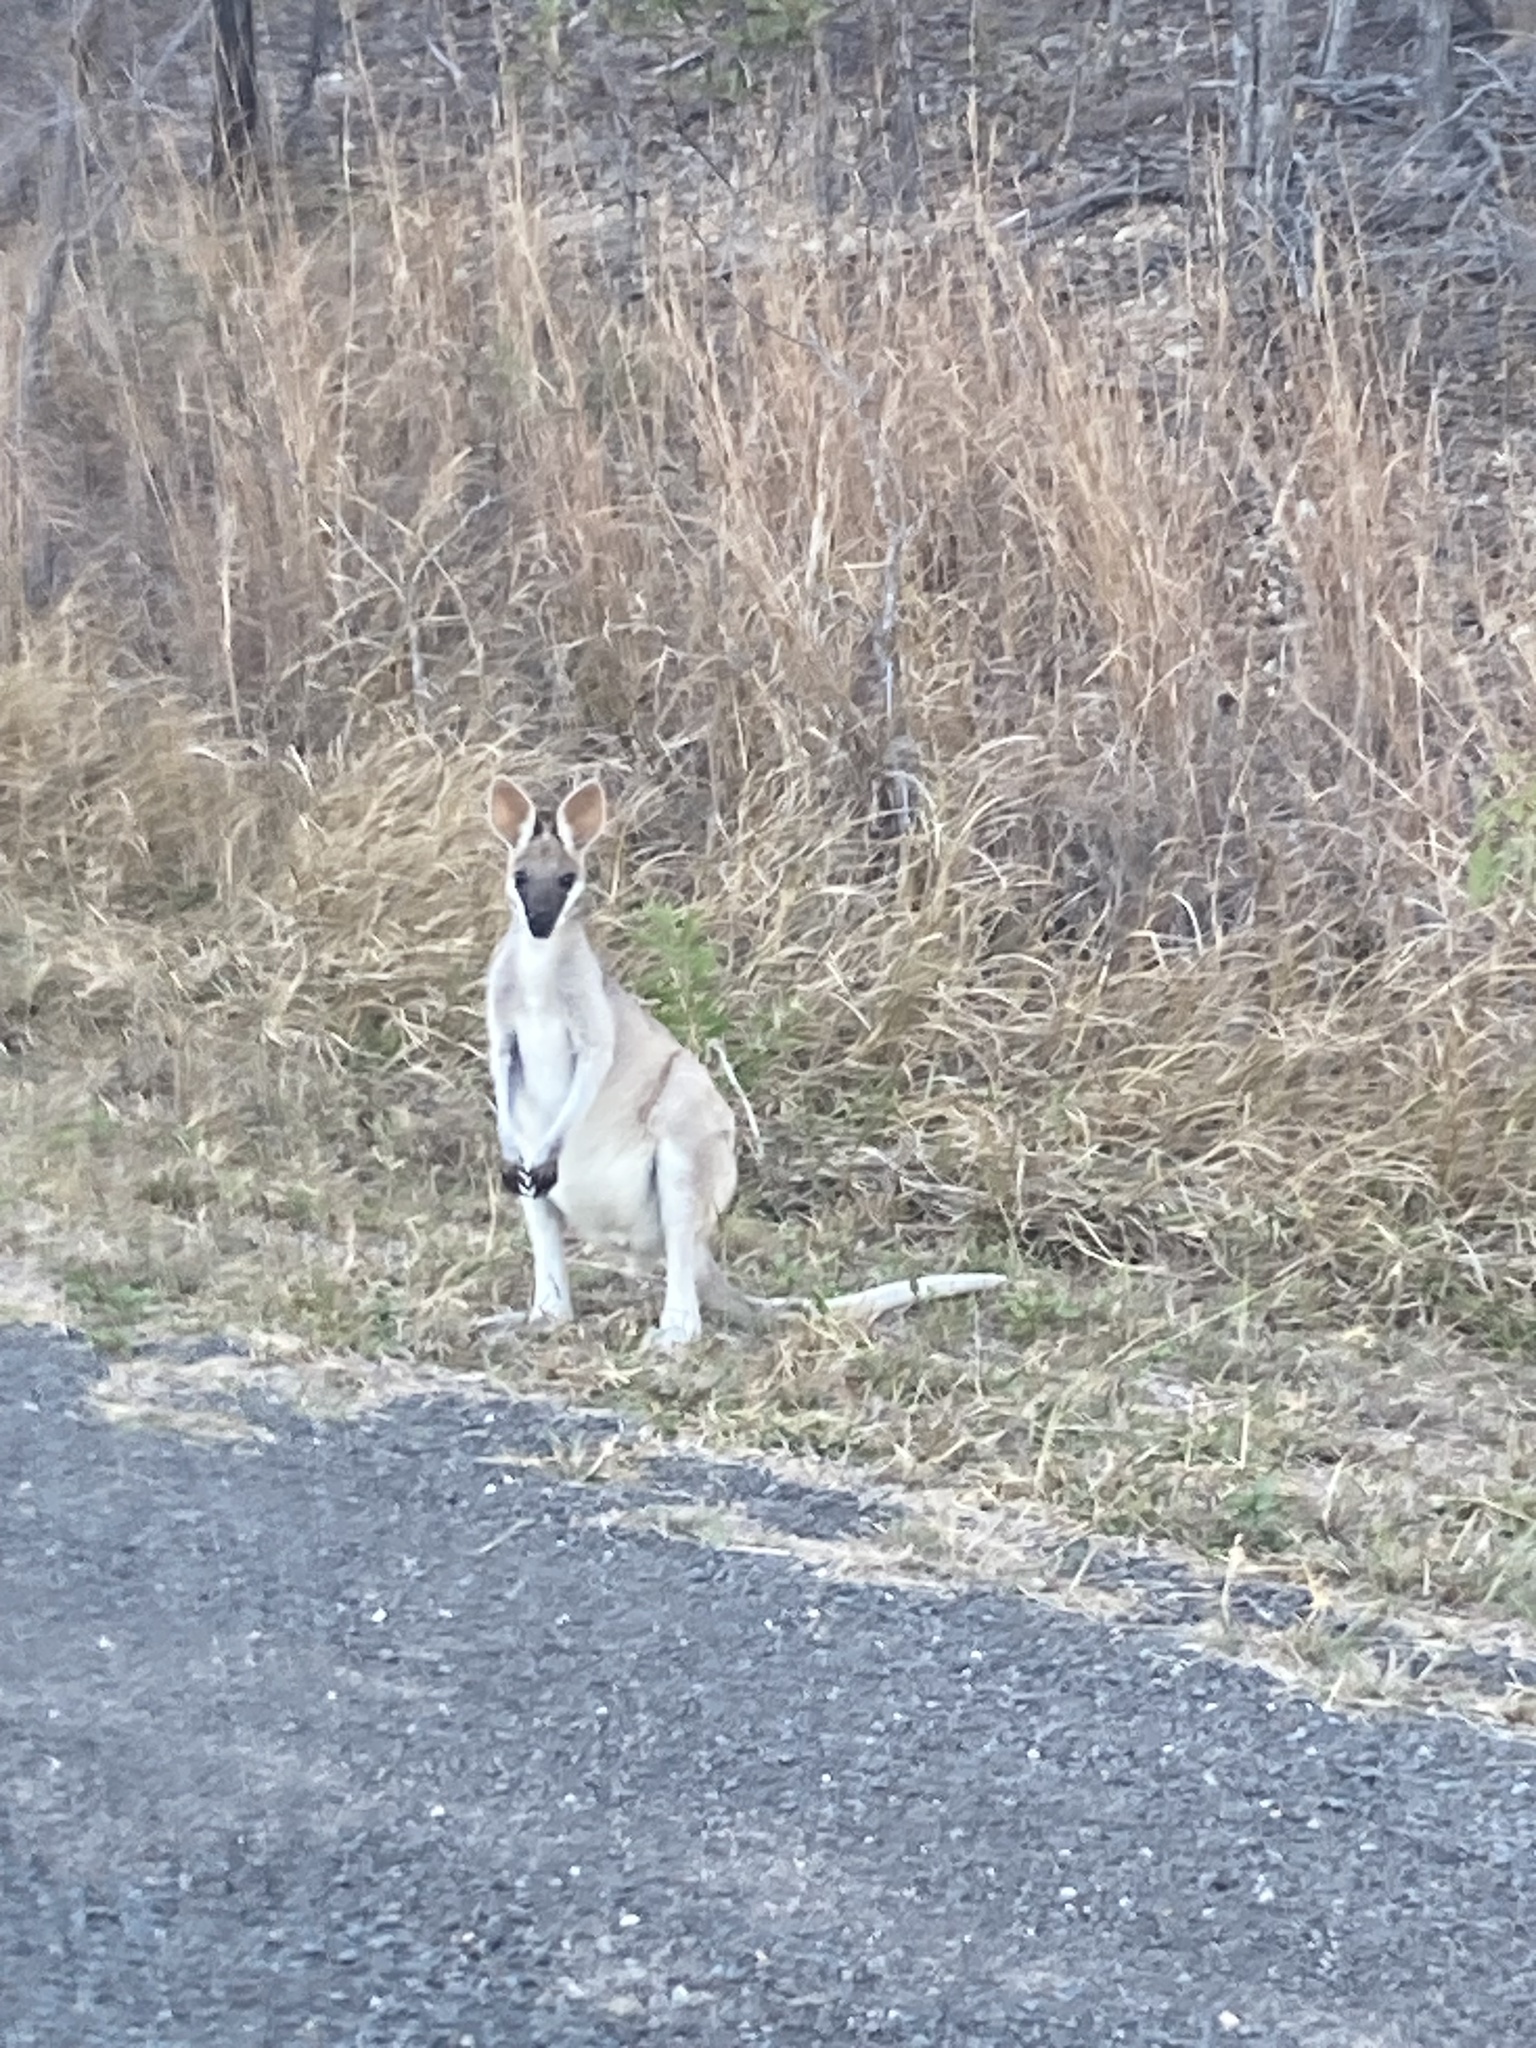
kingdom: Animalia
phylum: Chordata
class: Mammalia
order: Diprotodontia
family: Macropodidae
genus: Notamacropus
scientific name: Notamacropus parryi
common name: Whip-tailed wallaby
